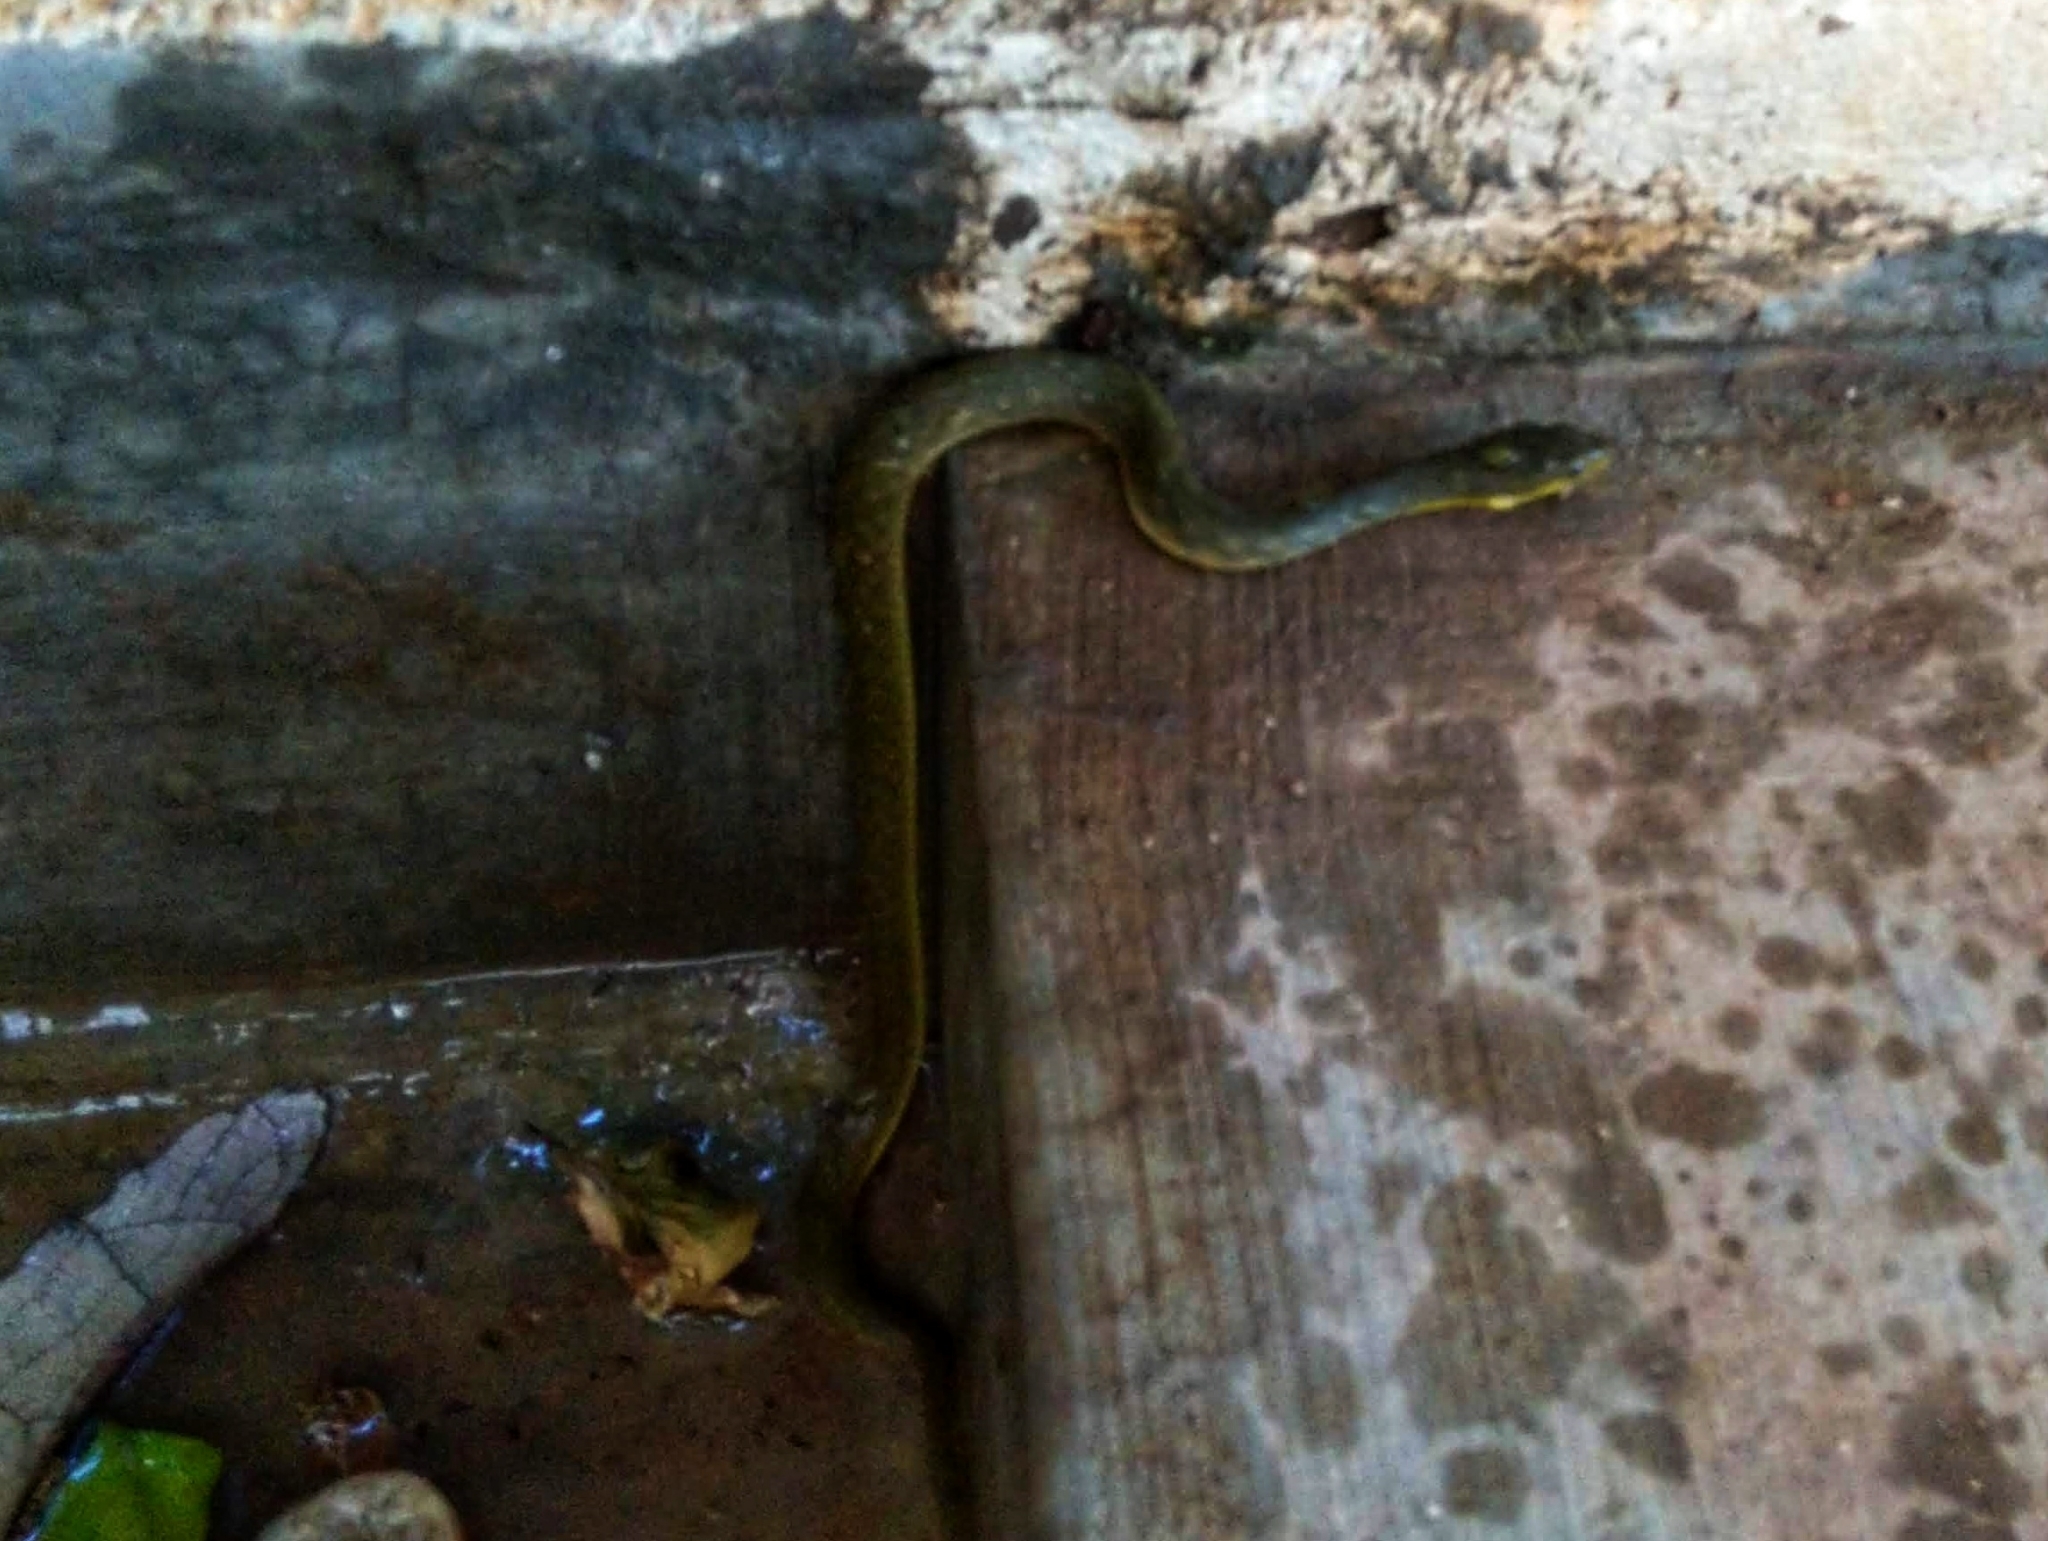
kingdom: Animalia
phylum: Chordata
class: Squamata
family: Colubridae
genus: Fowlea
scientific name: Fowlea piscator
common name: Asiatic water snake
